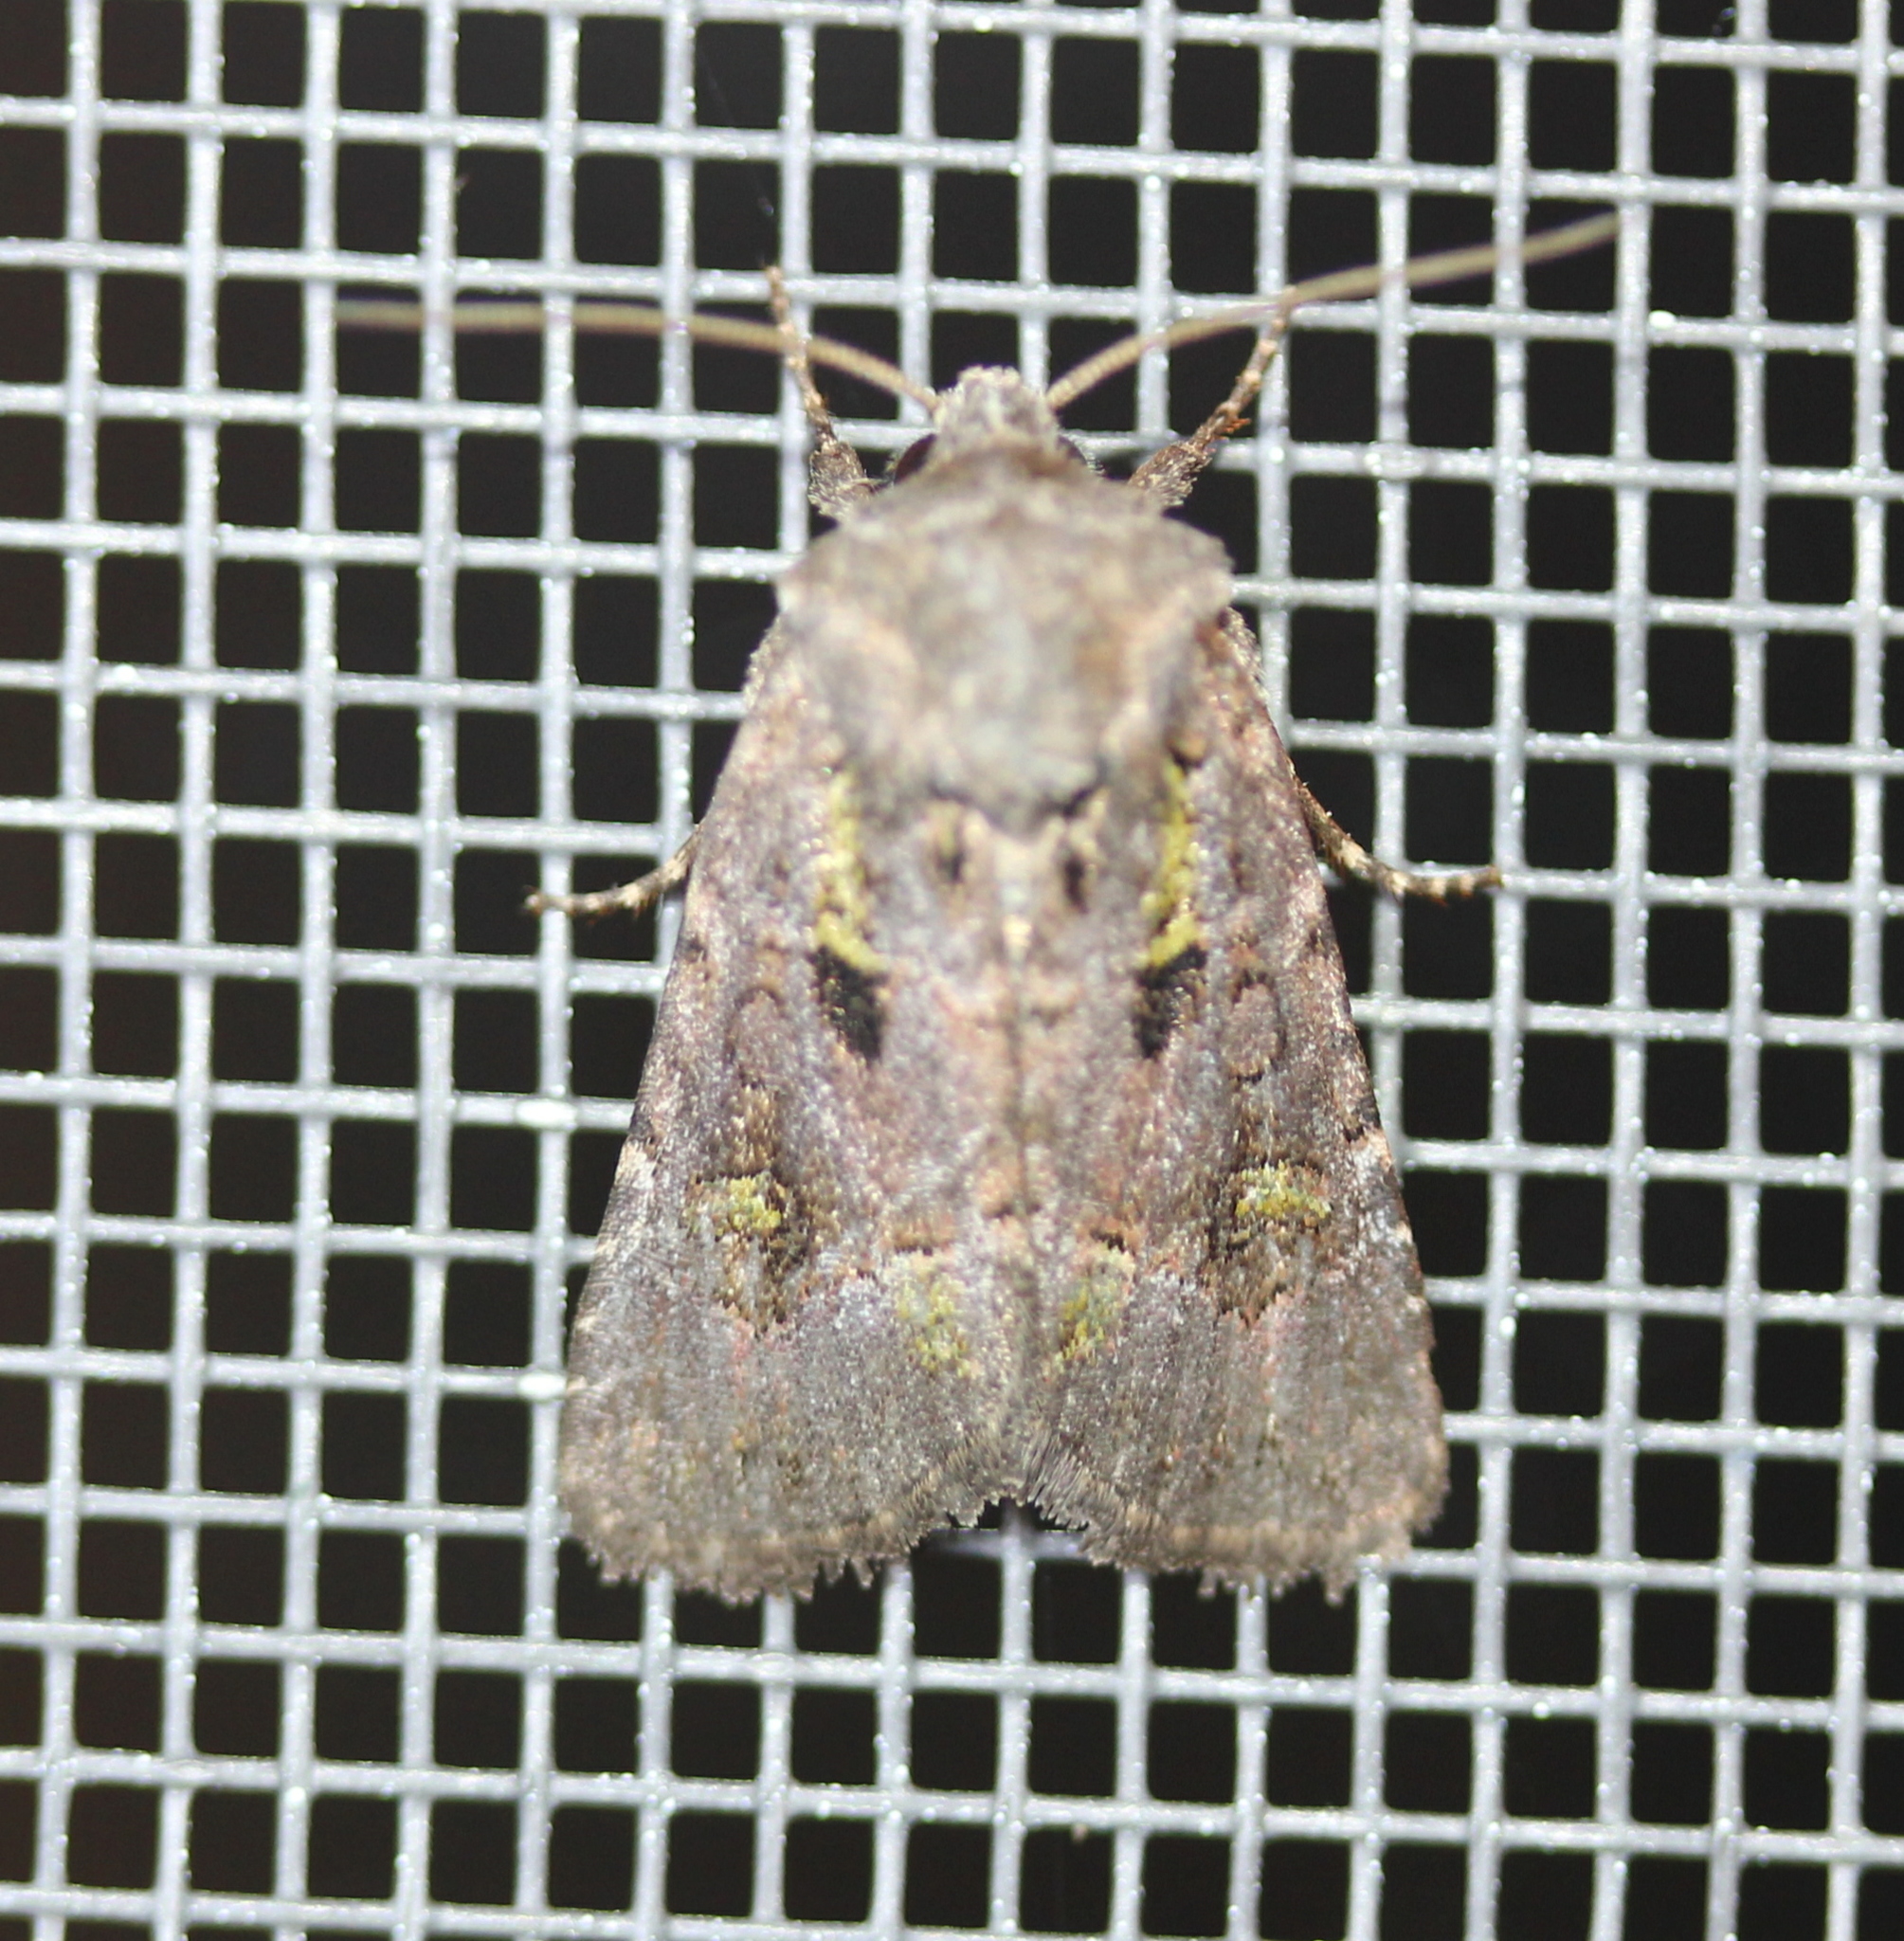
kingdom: Animalia
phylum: Arthropoda
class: Insecta
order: Lepidoptera
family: Noctuidae
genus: Lacinipolia
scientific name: Lacinipolia renigera
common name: Kidney-spotted minor
